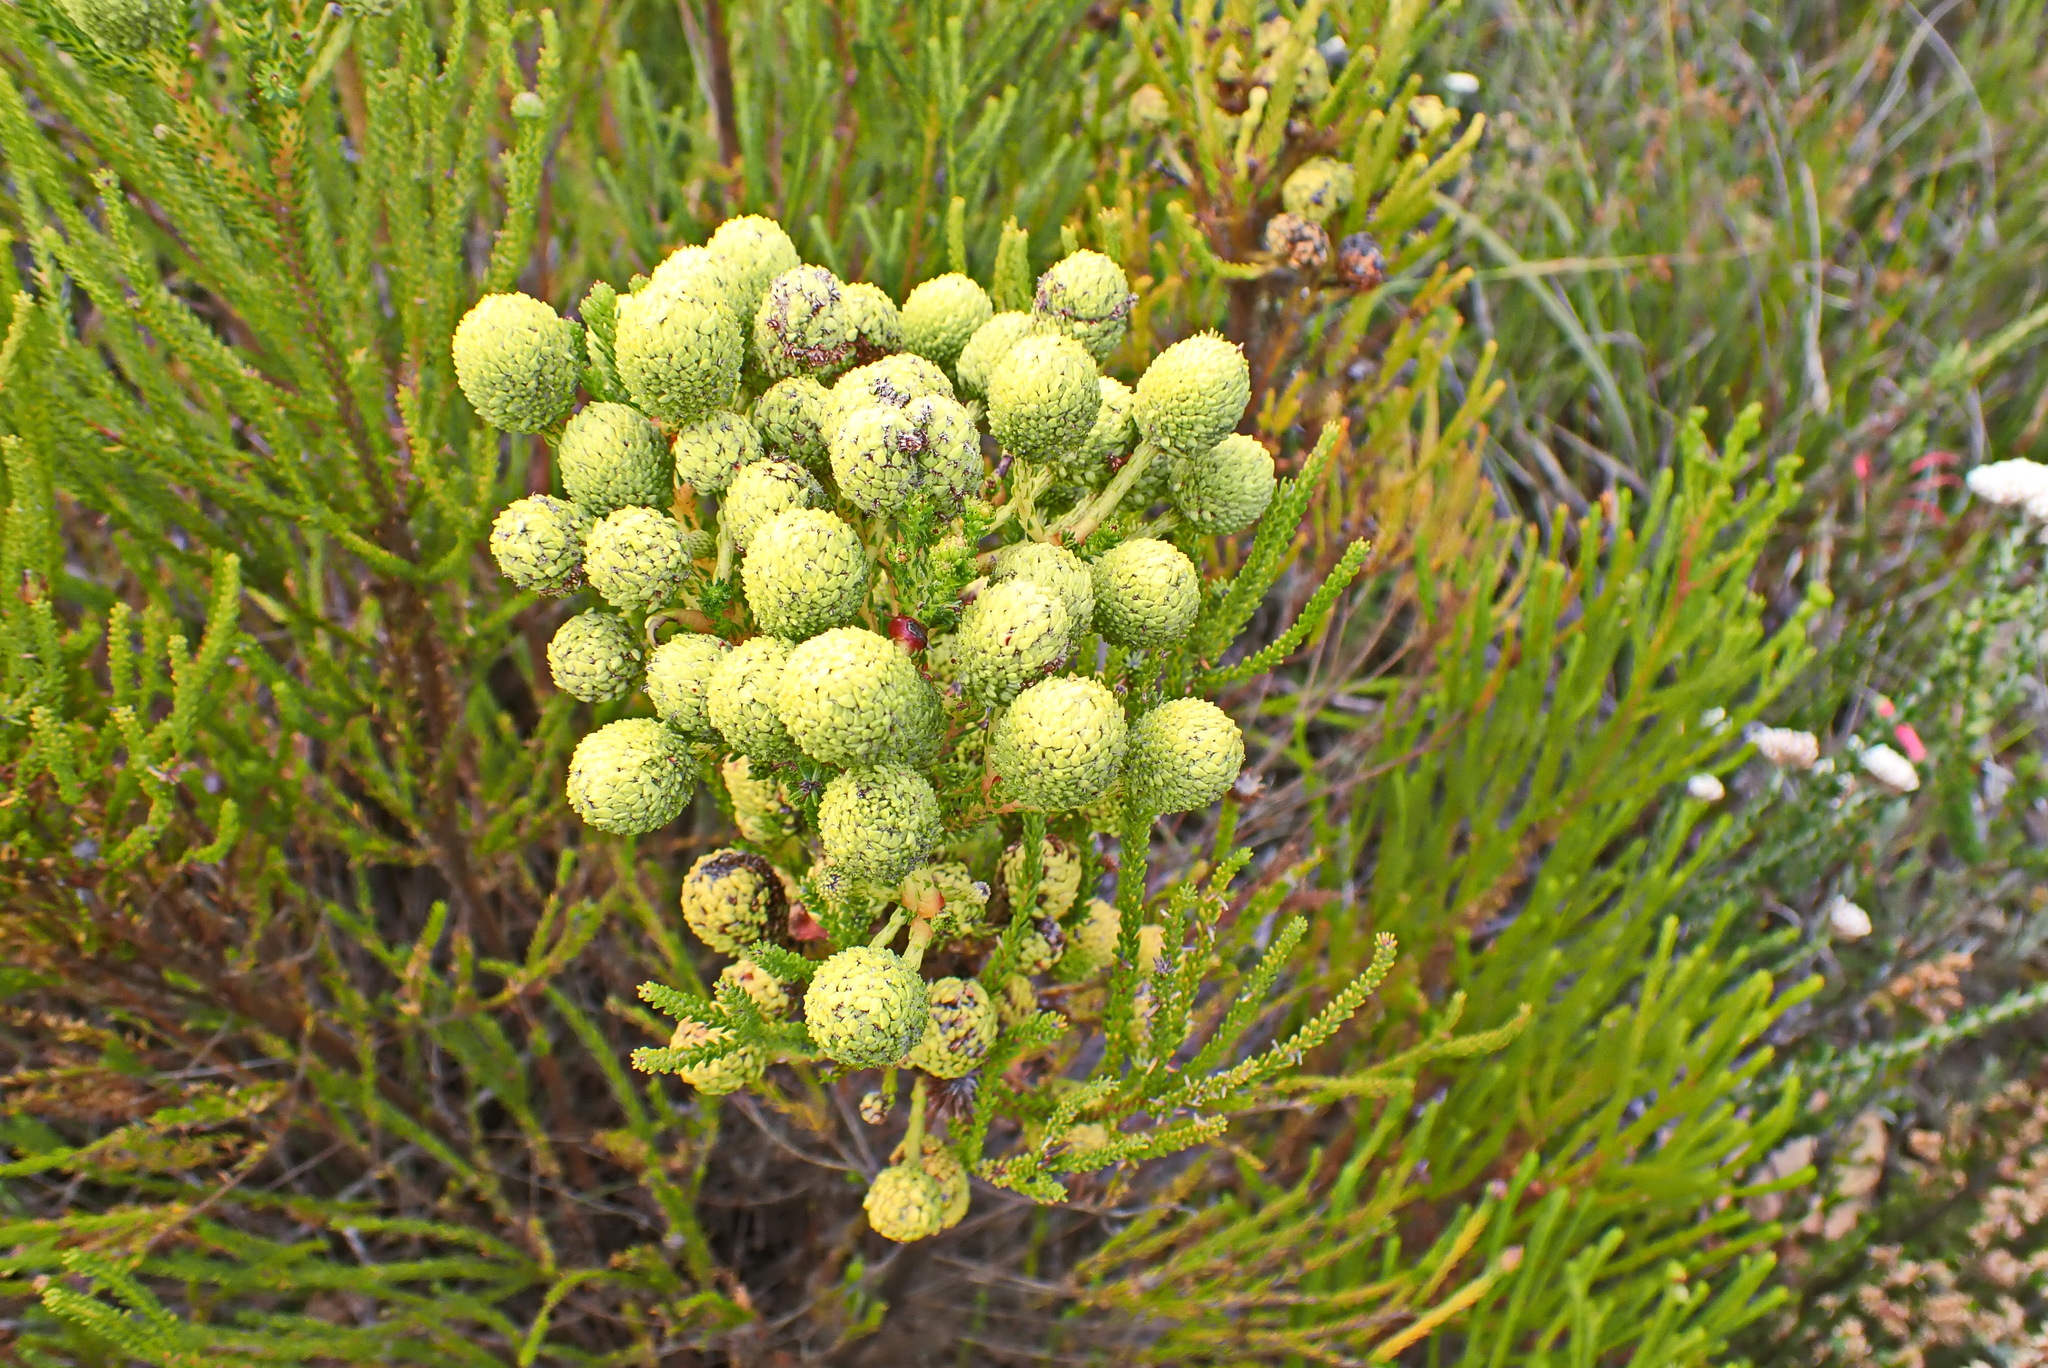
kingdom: Plantae
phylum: Tracheophyta
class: Magnoliopsida
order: Bruniales
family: Bruniaceae
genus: Berzelia
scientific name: Berzelia intermedia
